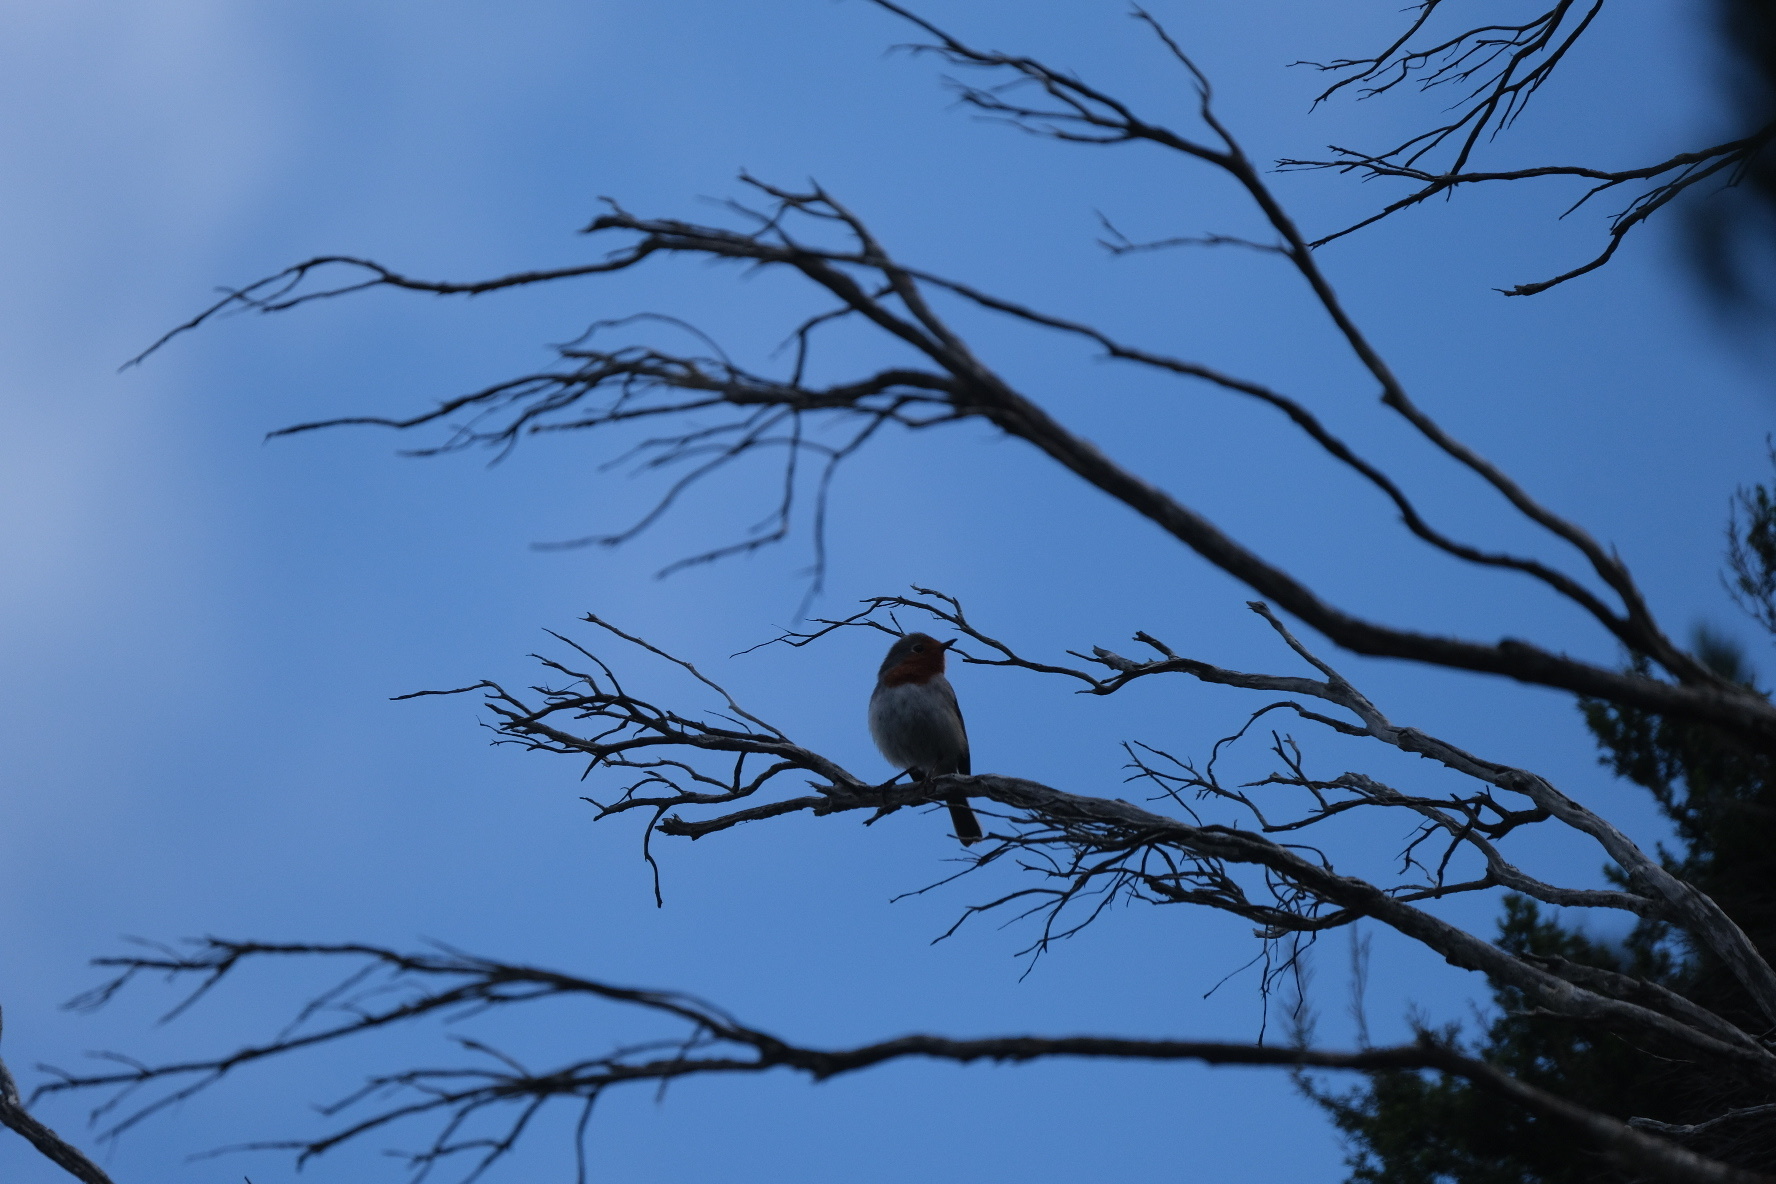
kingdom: Animalia
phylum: Chordata
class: Aves
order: Passeriformes
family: Muscicapidae
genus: Erithacus
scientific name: Erithacus rubecula
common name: European robin
